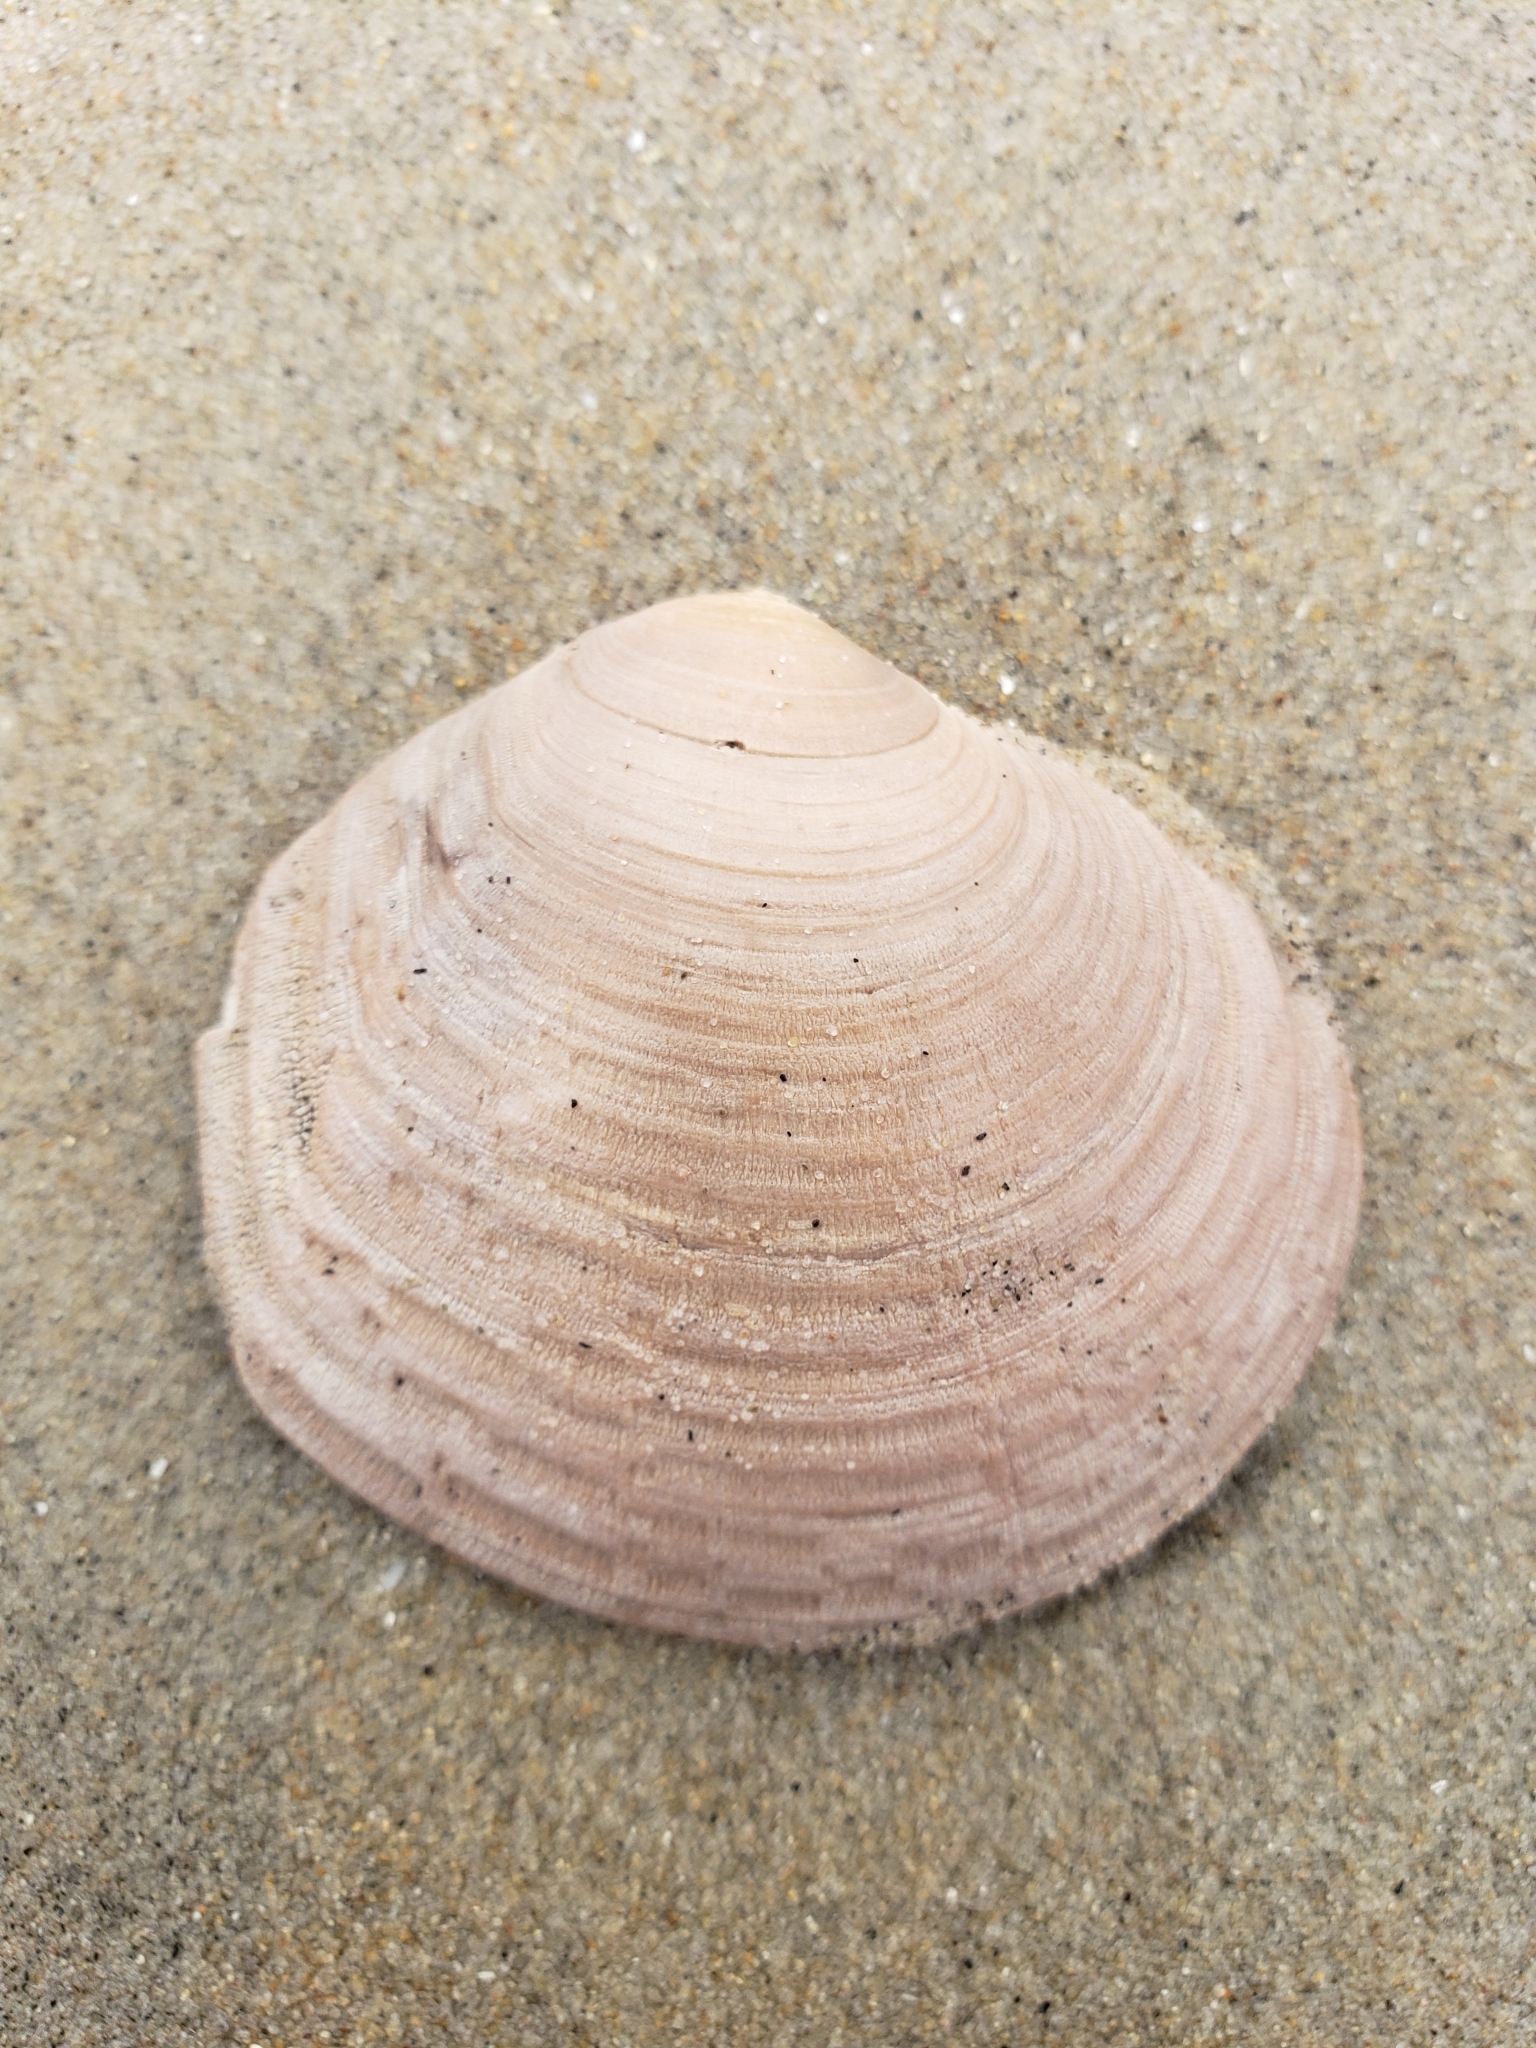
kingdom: Animalia
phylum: Mollusca
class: Bivalvia
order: Cardiida
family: Semelidae
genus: Semele
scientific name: Semele decisa
